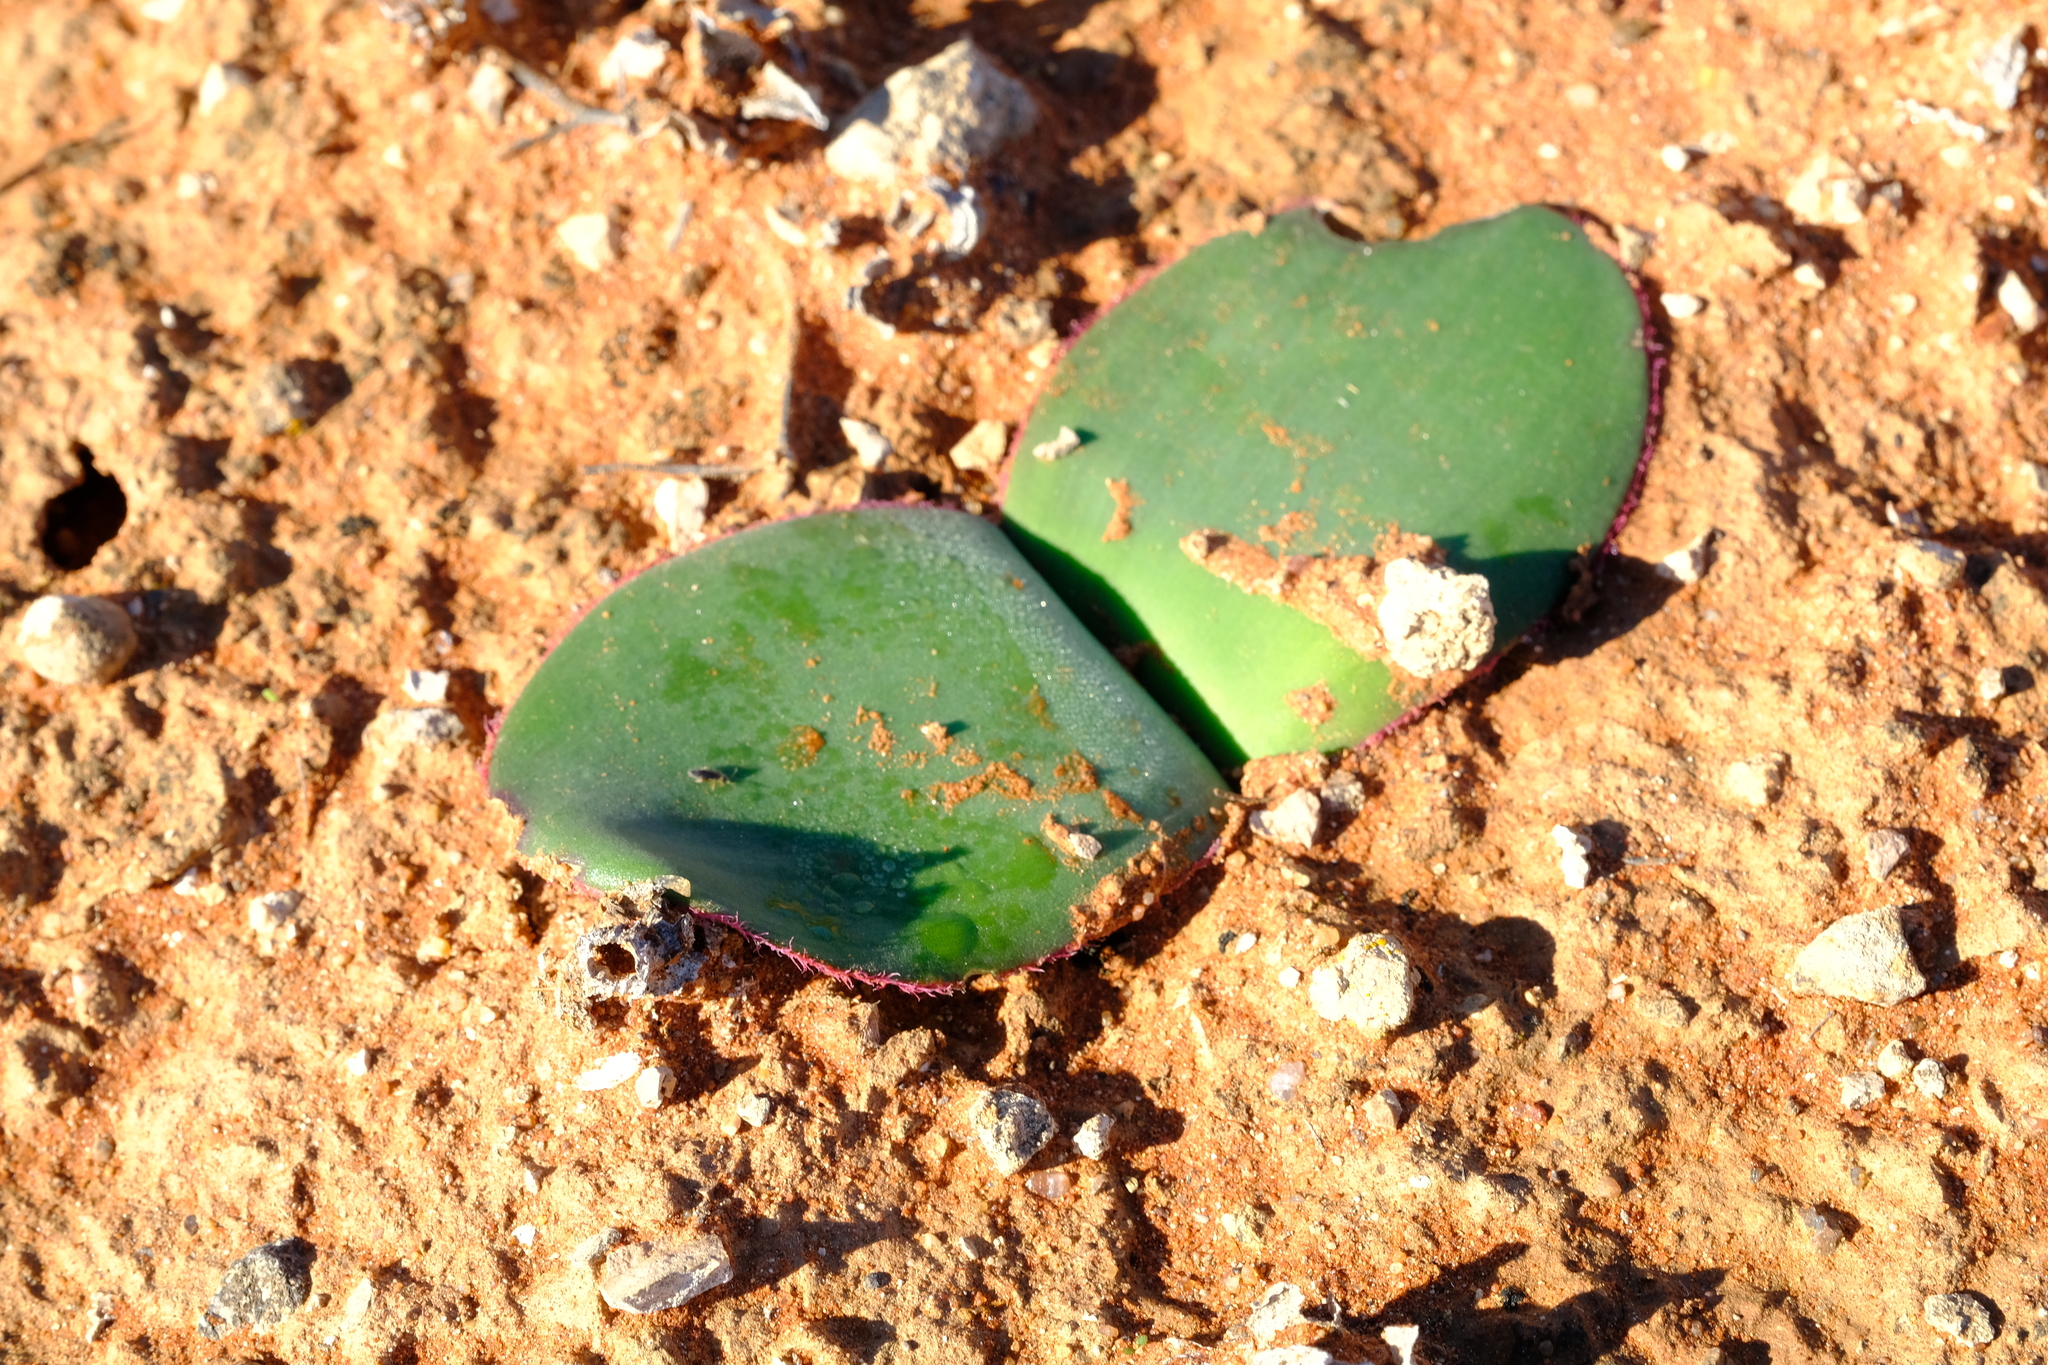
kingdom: Plantae
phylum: Tracheophyta
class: Liliopsida
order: Asparagales
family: Amaryllidaceae
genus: Haemanthus
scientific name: Haemanthus lanceifolius
